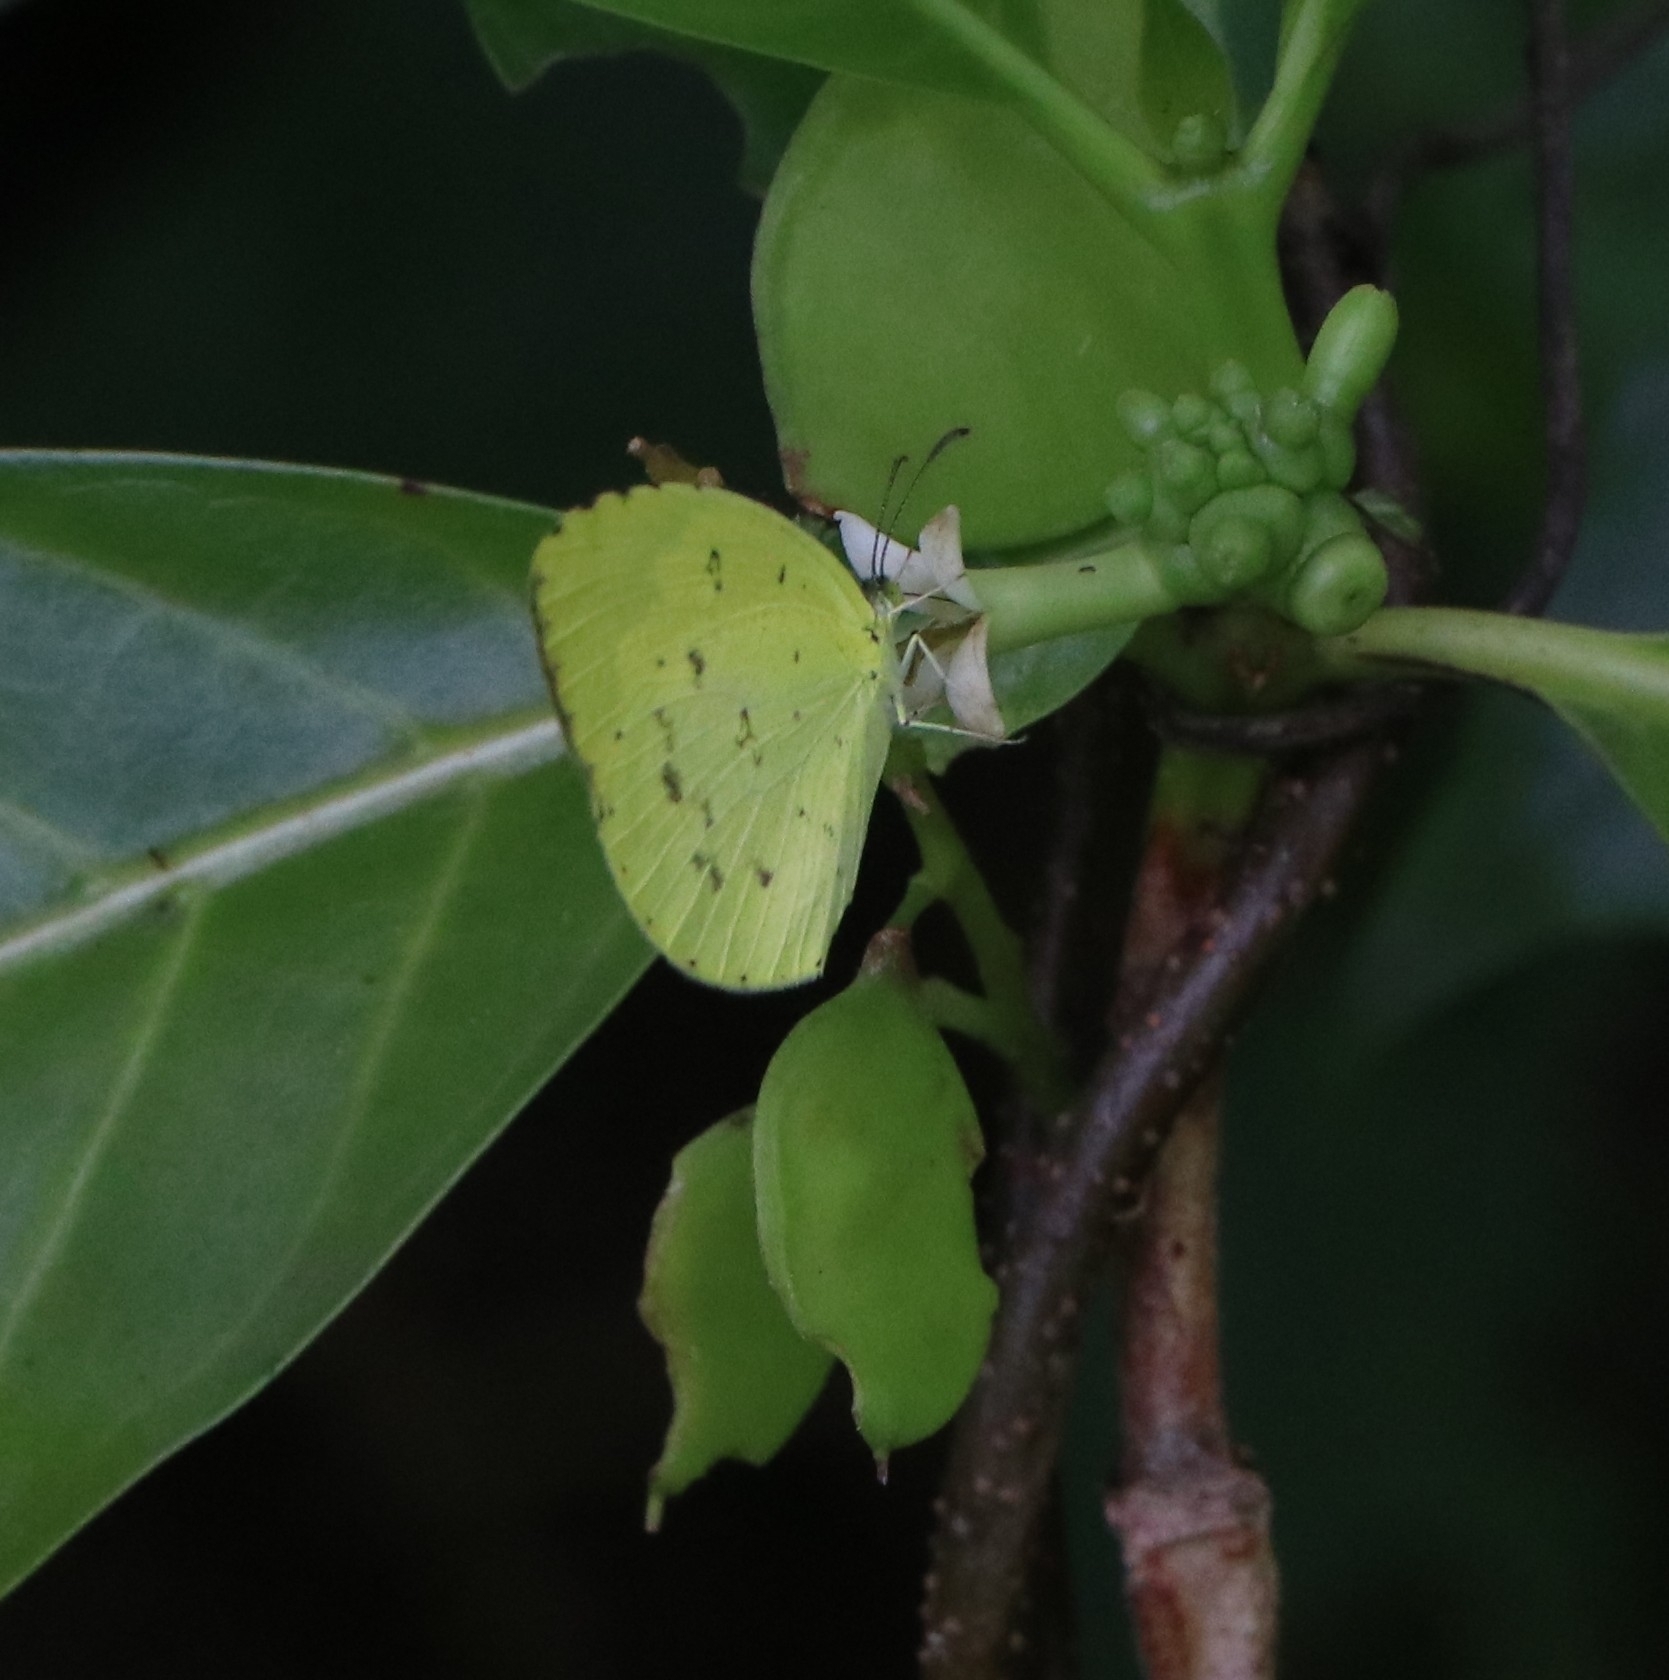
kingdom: Animalia
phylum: Arthropoda
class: Insecta
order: Lepidoptera
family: Pieridae
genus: Eurema
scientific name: Eurema hecabe
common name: Pale grass yellow
